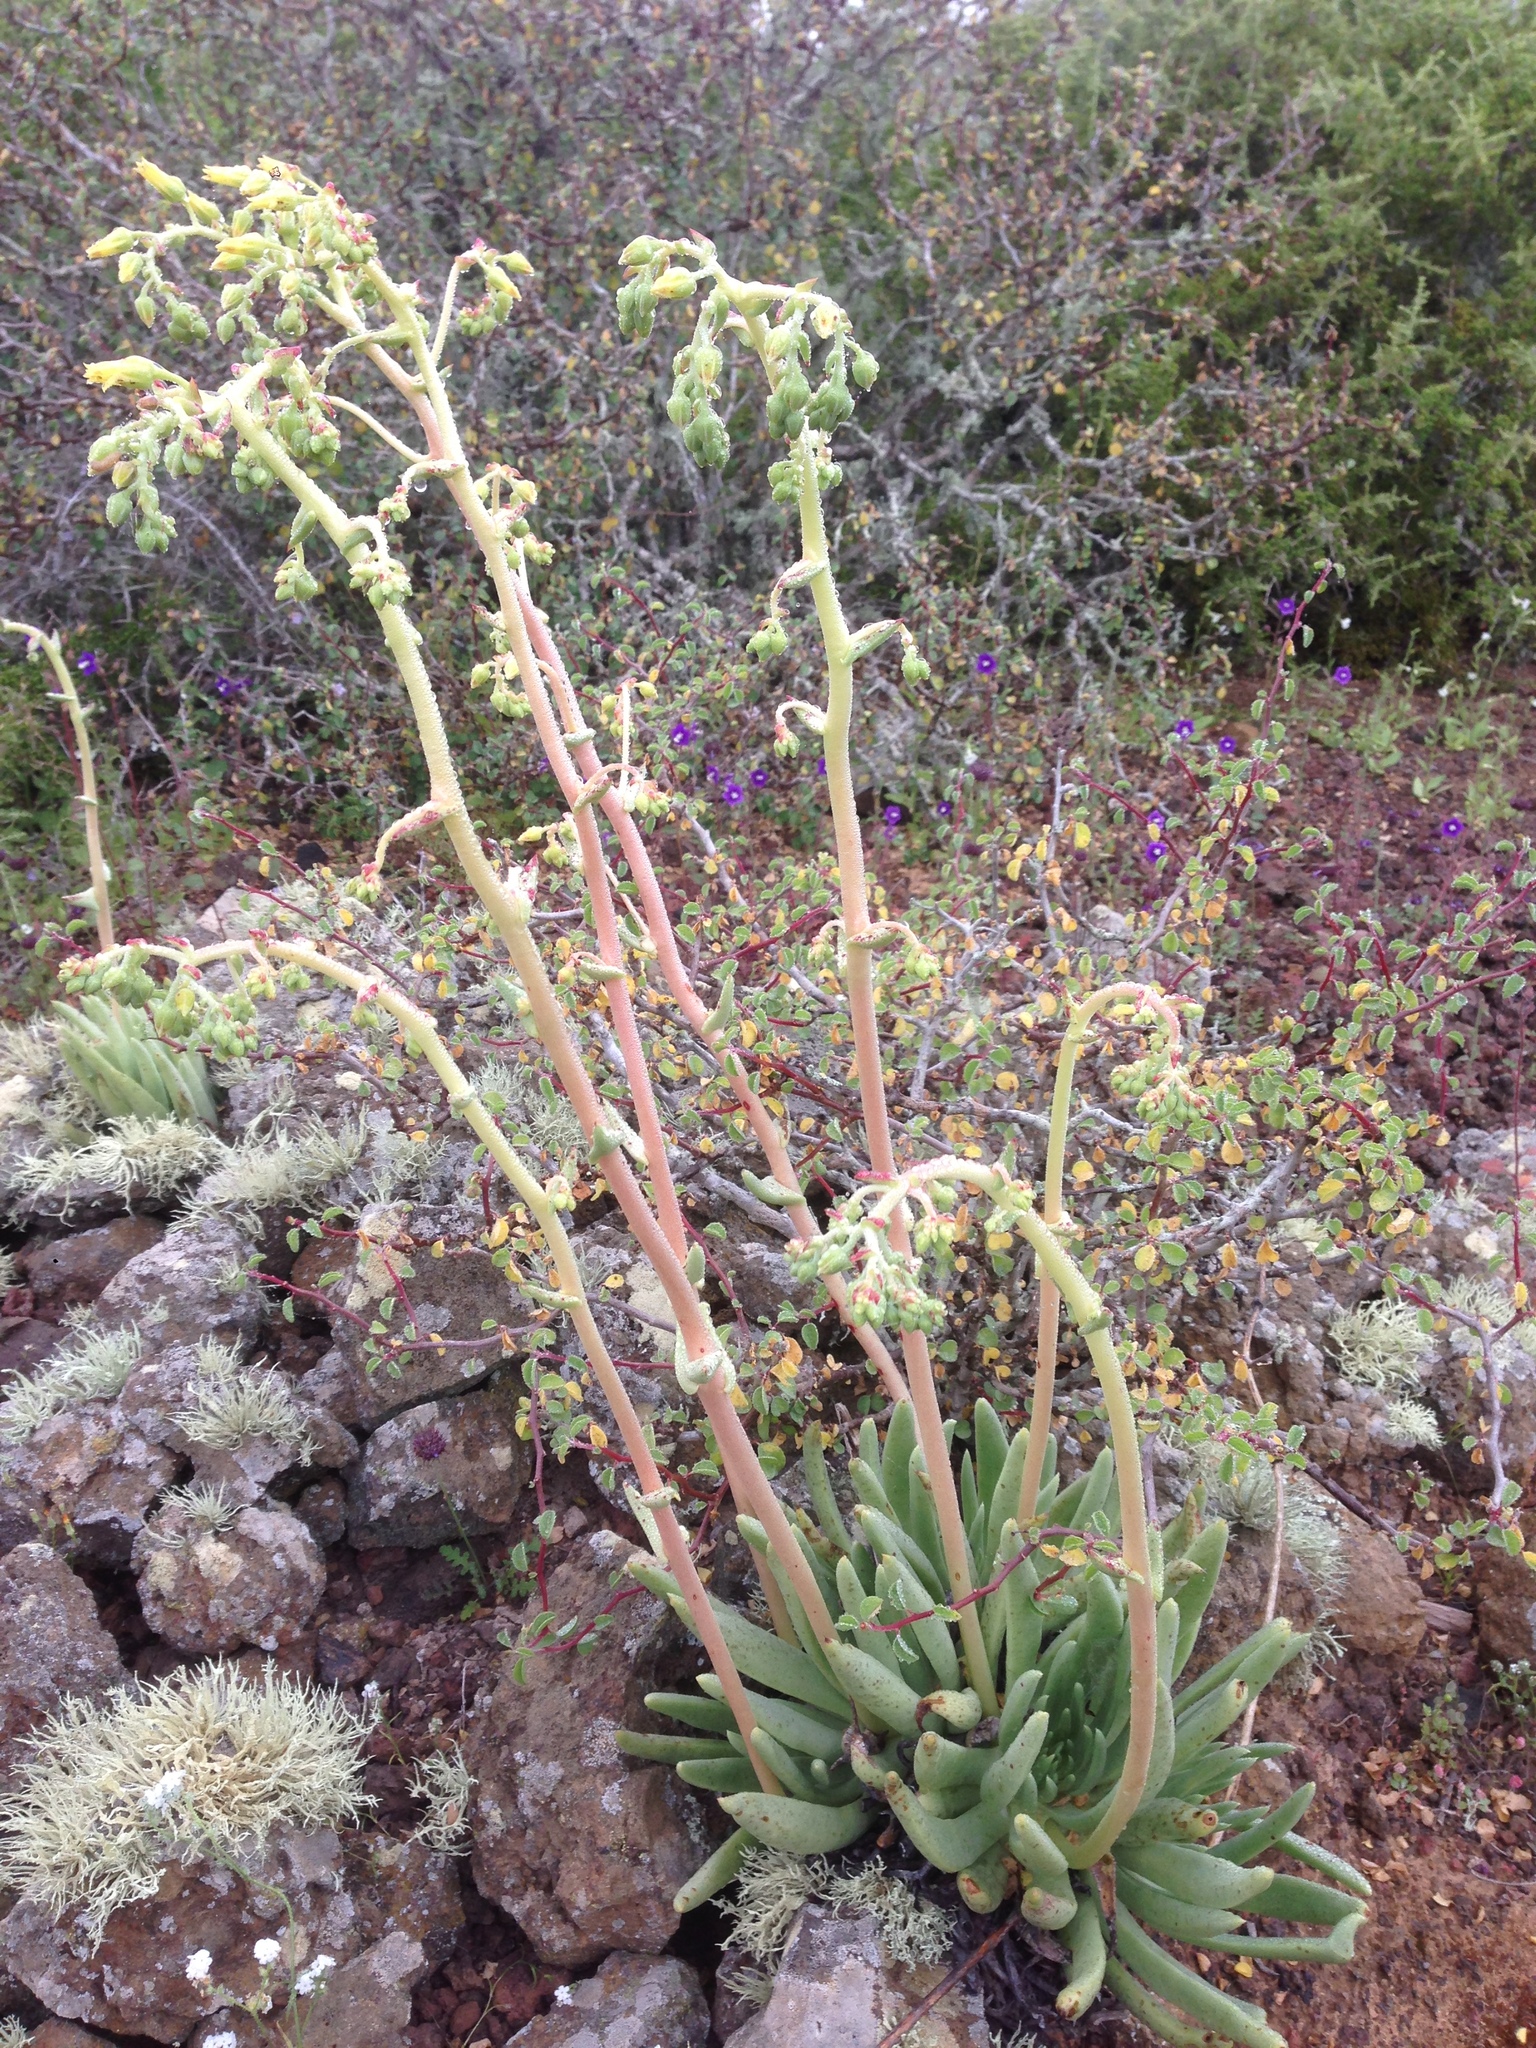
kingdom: Plantae
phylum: Tracheophyta
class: Magnoliopsida
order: Saxifragales
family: Crassulaceae
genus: Dudleya
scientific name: Dudleya cultrata
